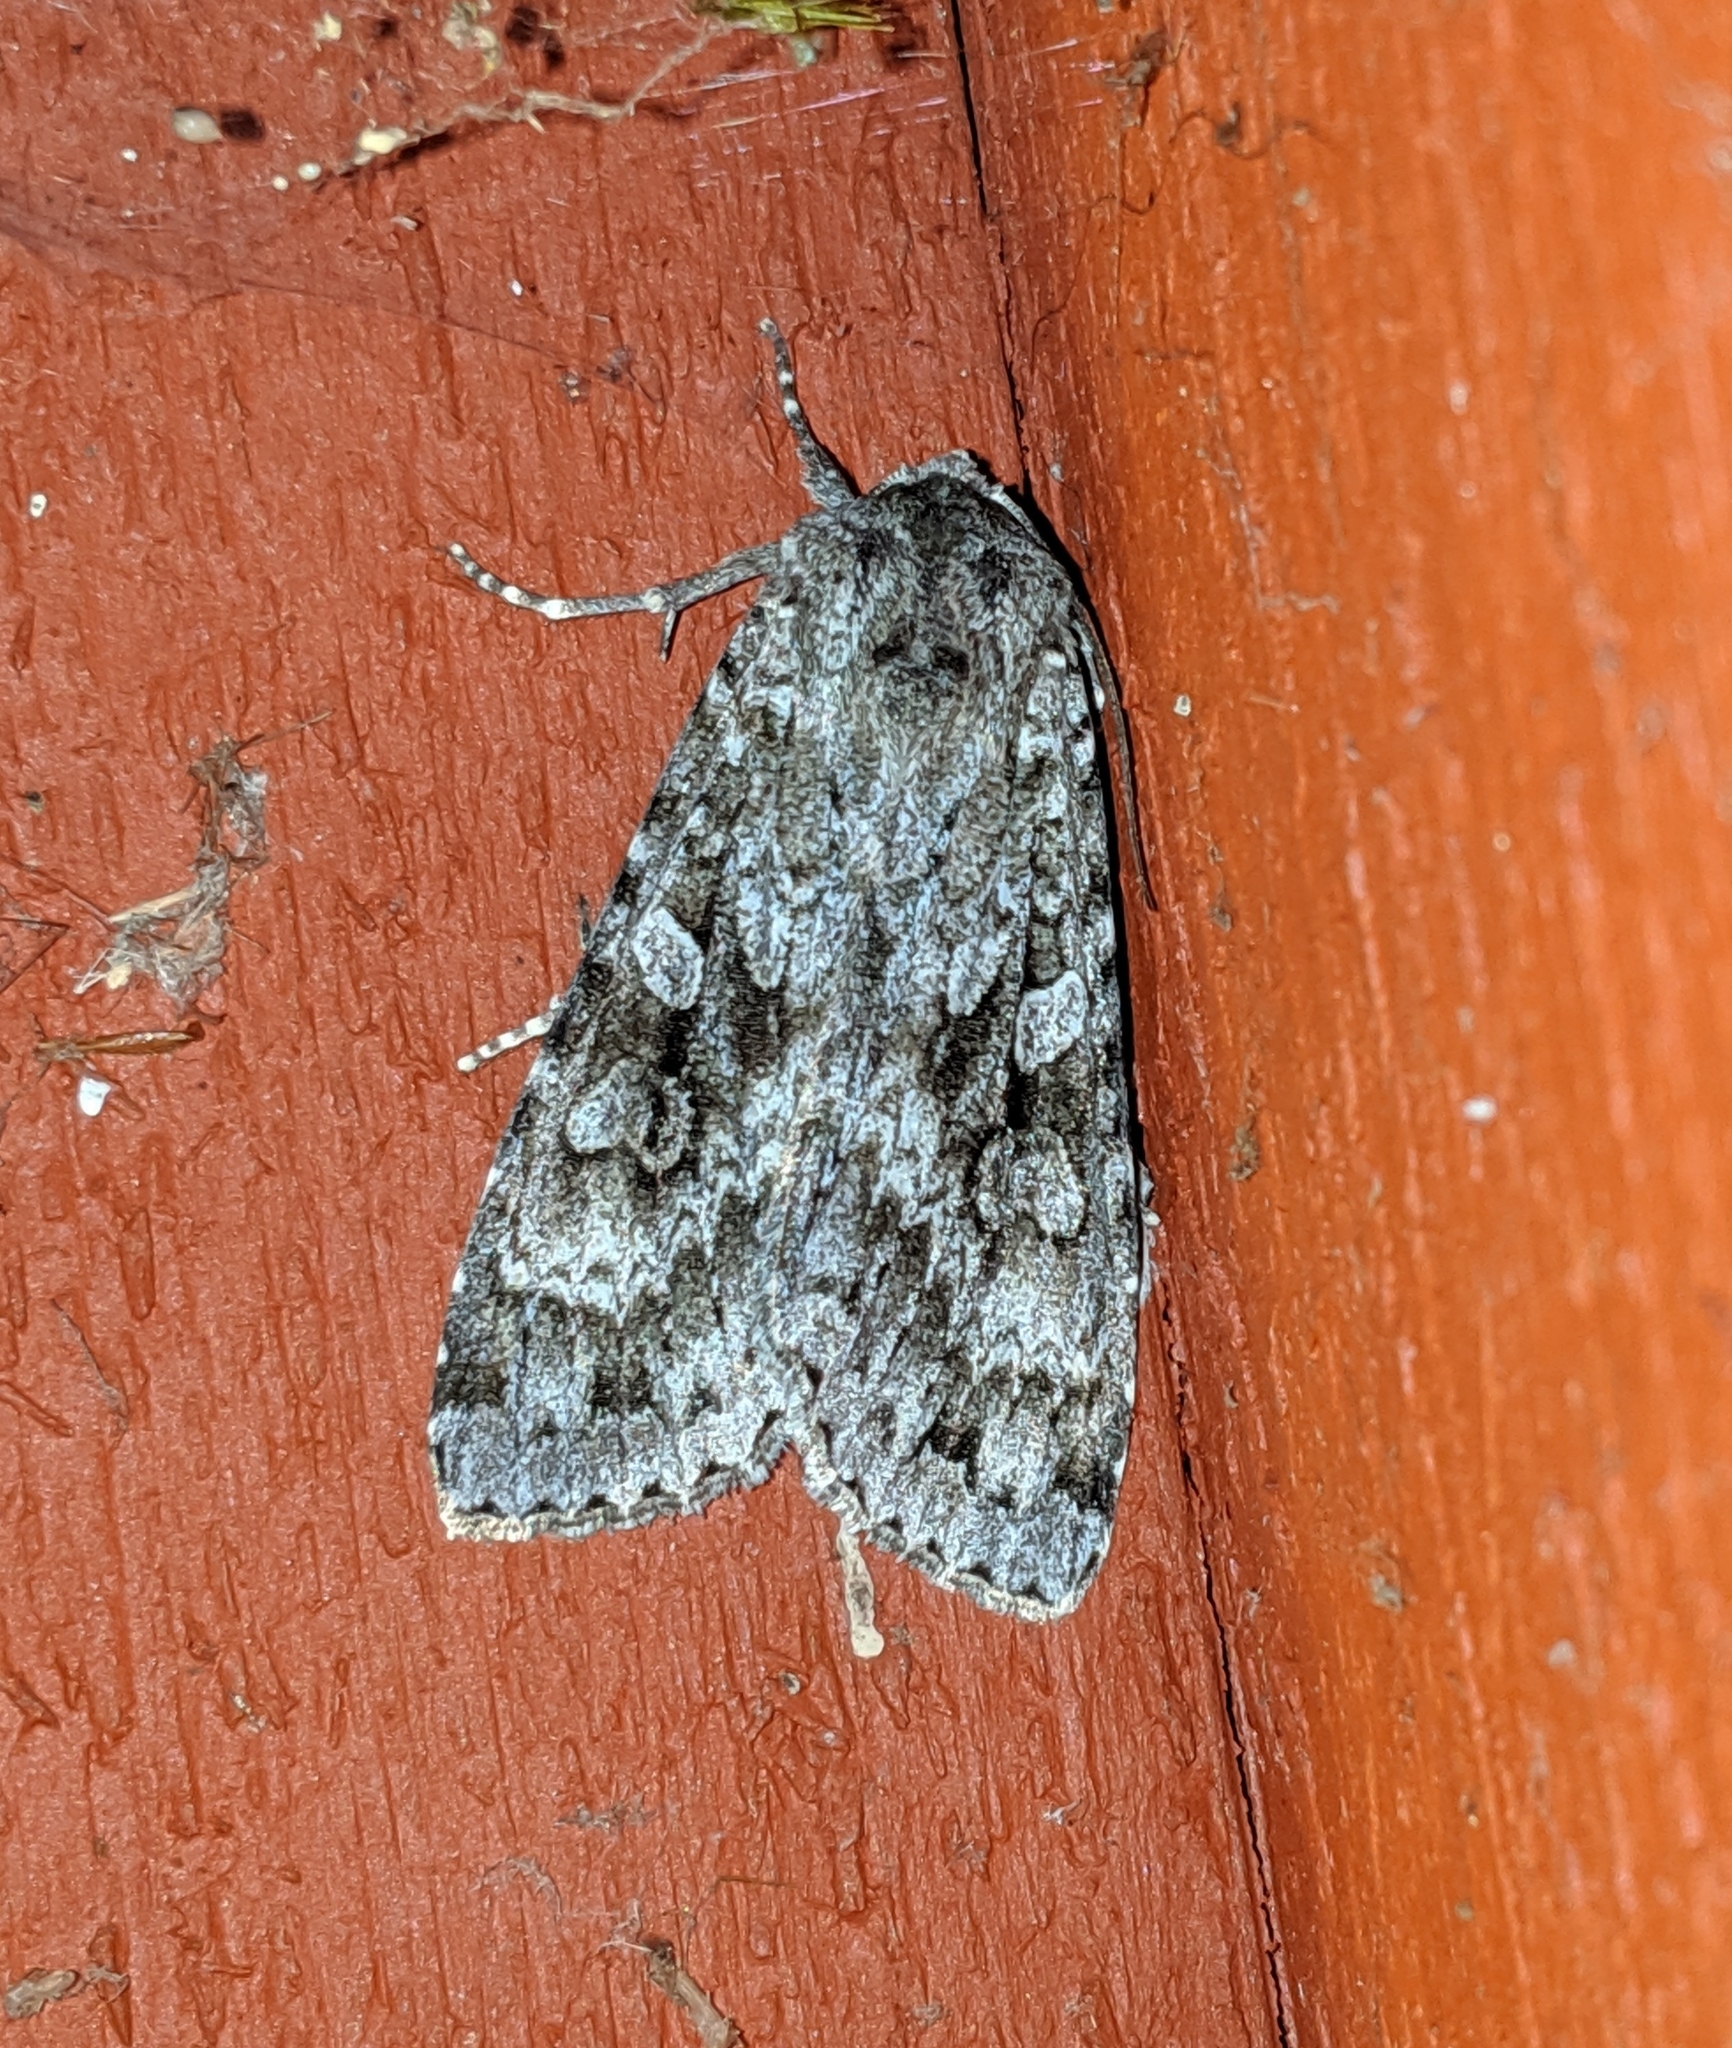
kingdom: Animalia
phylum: Arthropoda
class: Insecta
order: Lepidoptera
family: Noctuidae
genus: Eurois
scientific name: Eurois occulta
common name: Great brocade
